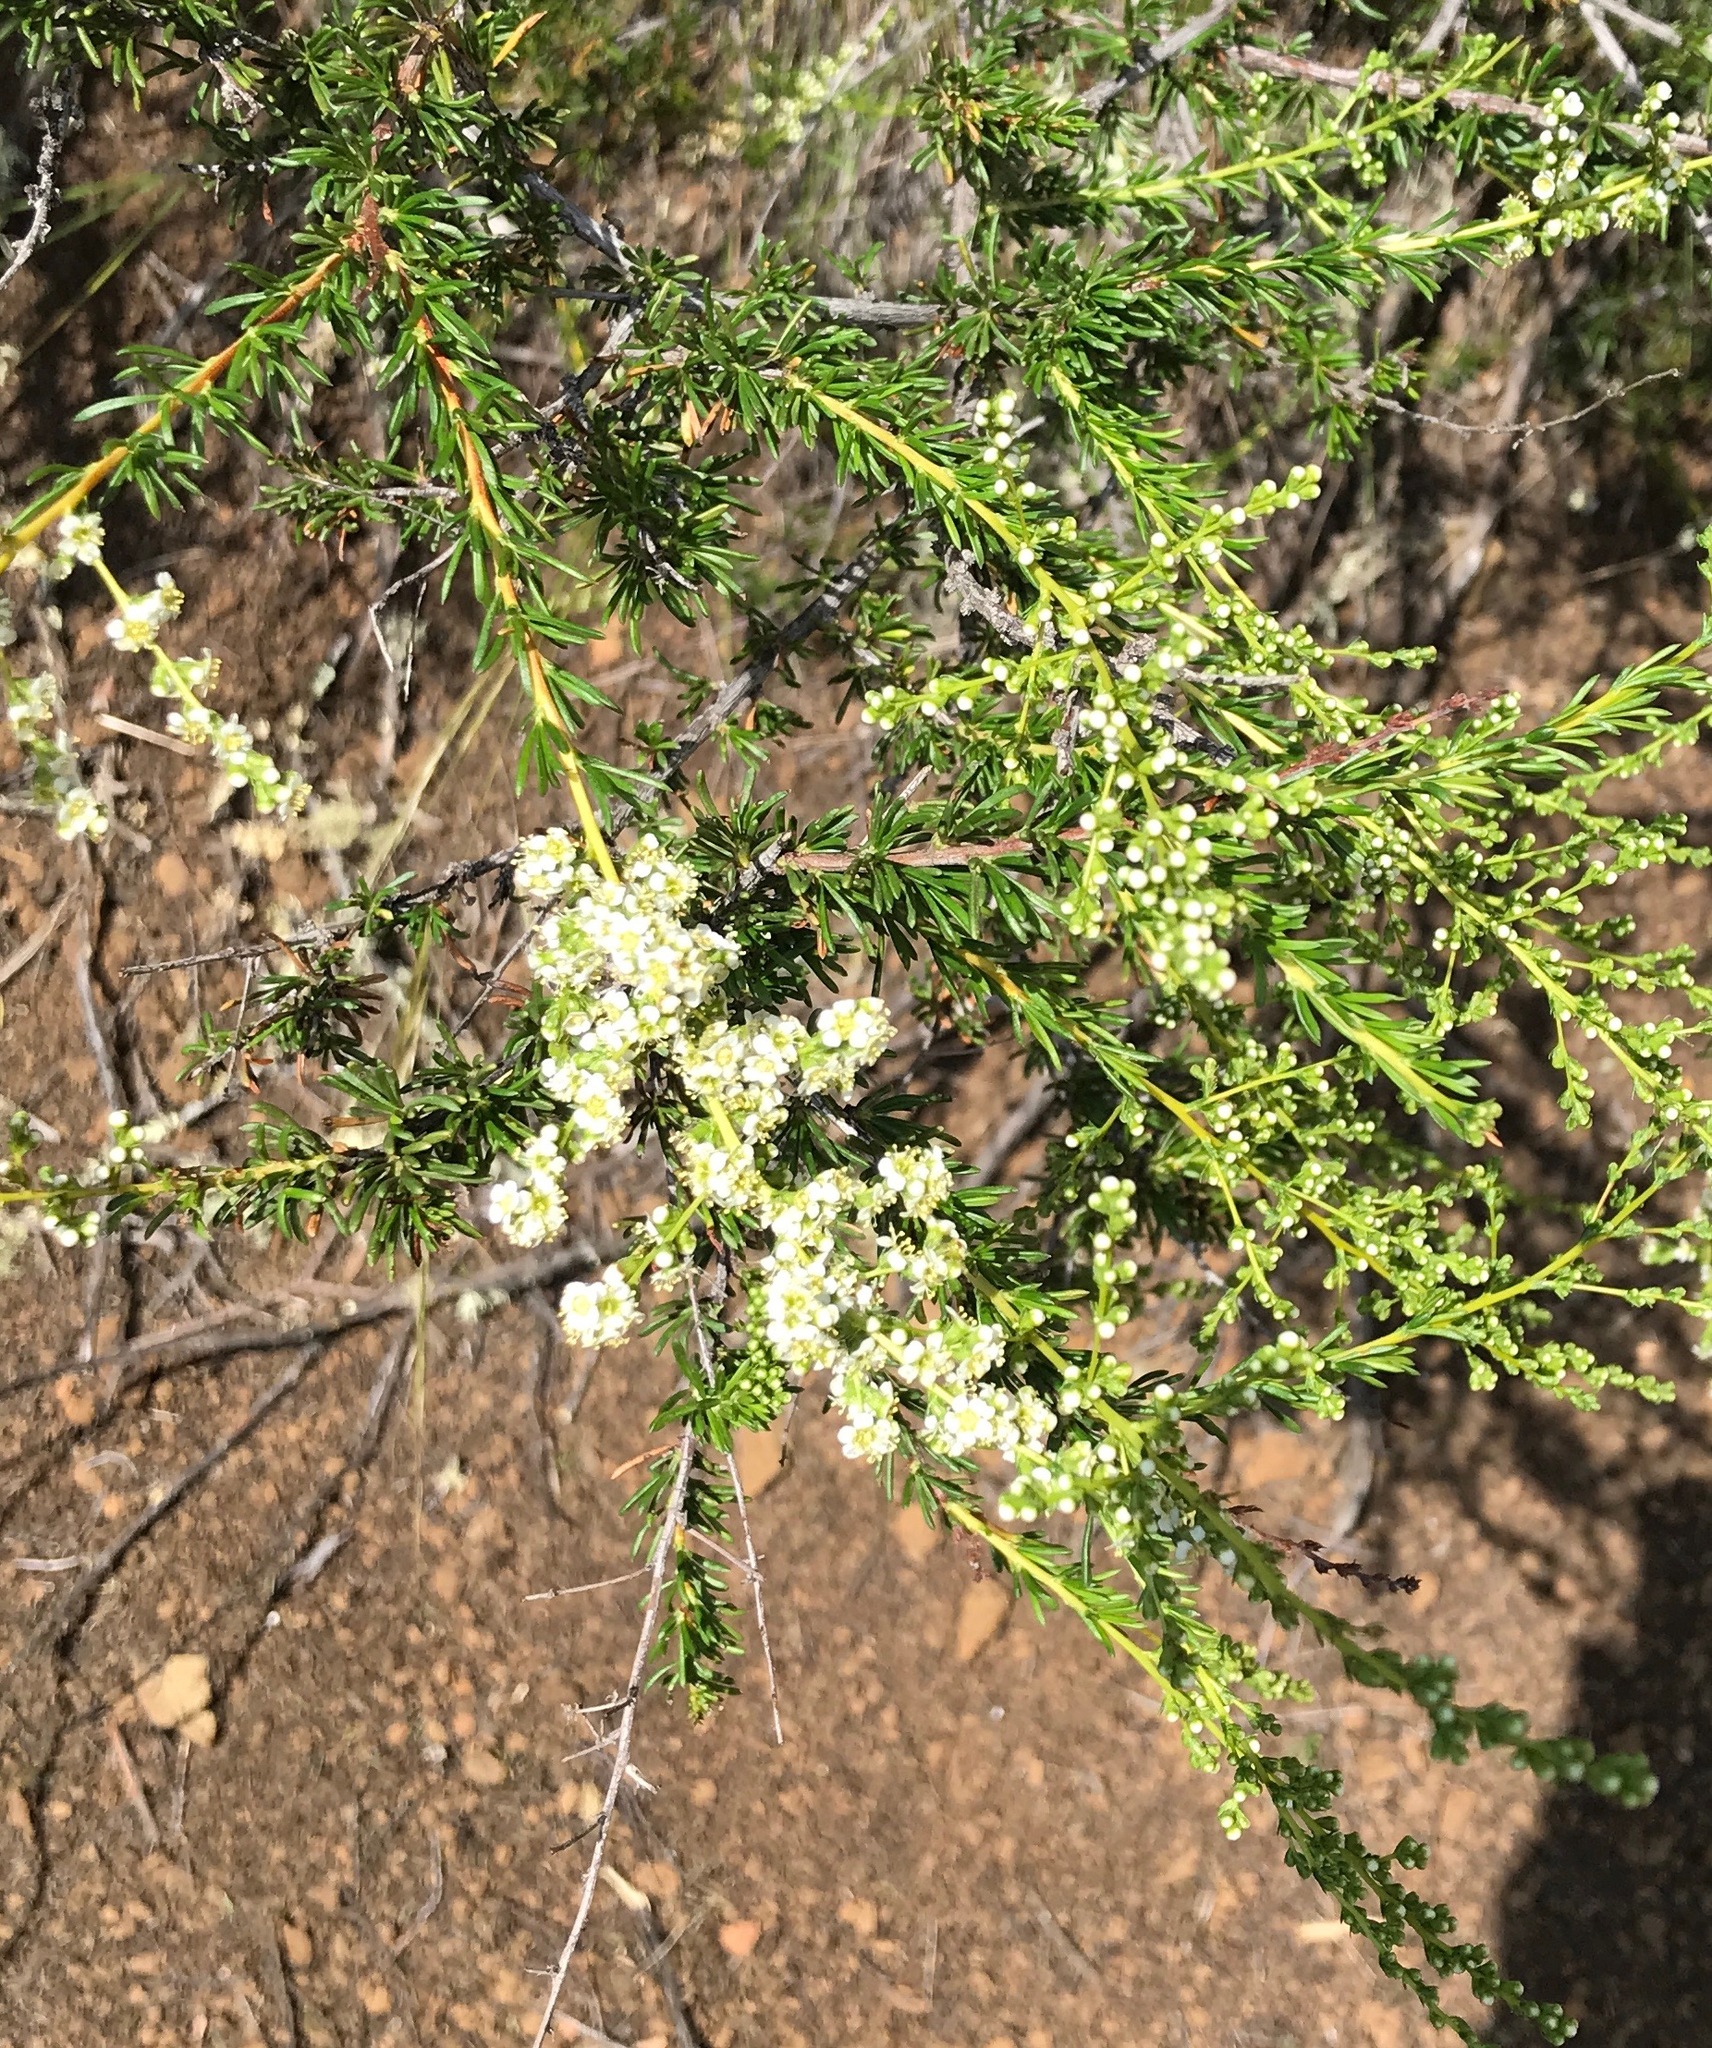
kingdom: Plantae
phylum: Tracheophyta
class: Magnoliopsida
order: Rosales
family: Rosaceae
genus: Adenostoma
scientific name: Adenostoma fasciculatum
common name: Chamise
